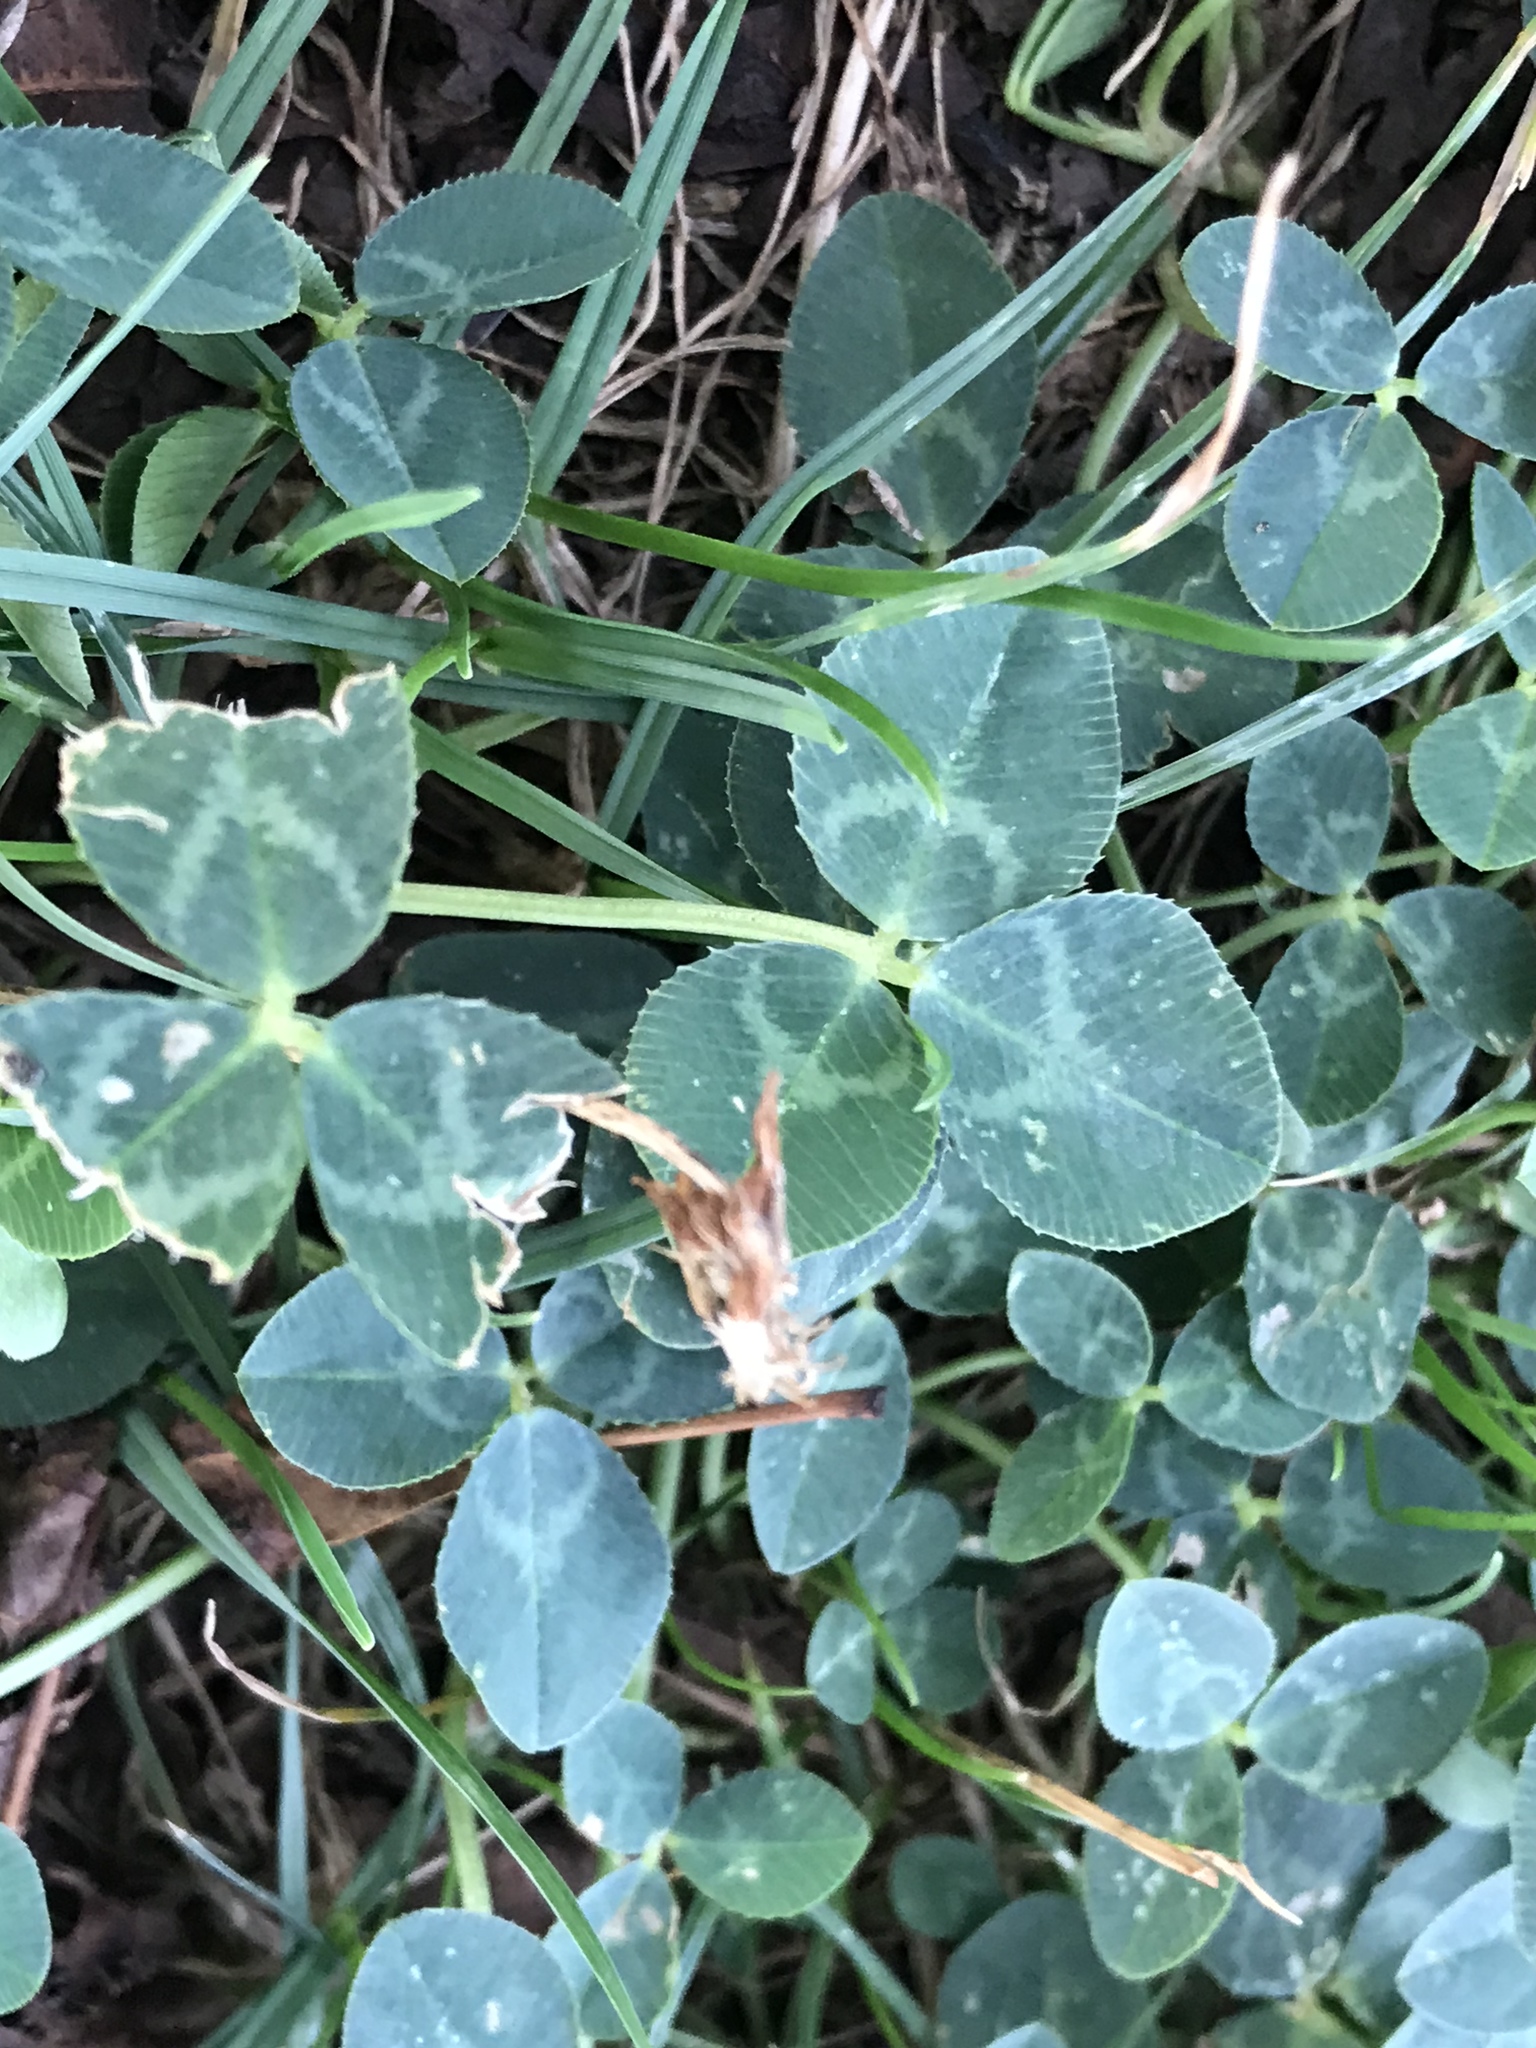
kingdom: Plantae
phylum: Tracheophyta
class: Magnoliopsida
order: Fabales
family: Fabaceae
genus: Trifolium
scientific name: Trifolium repens
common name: White clover
